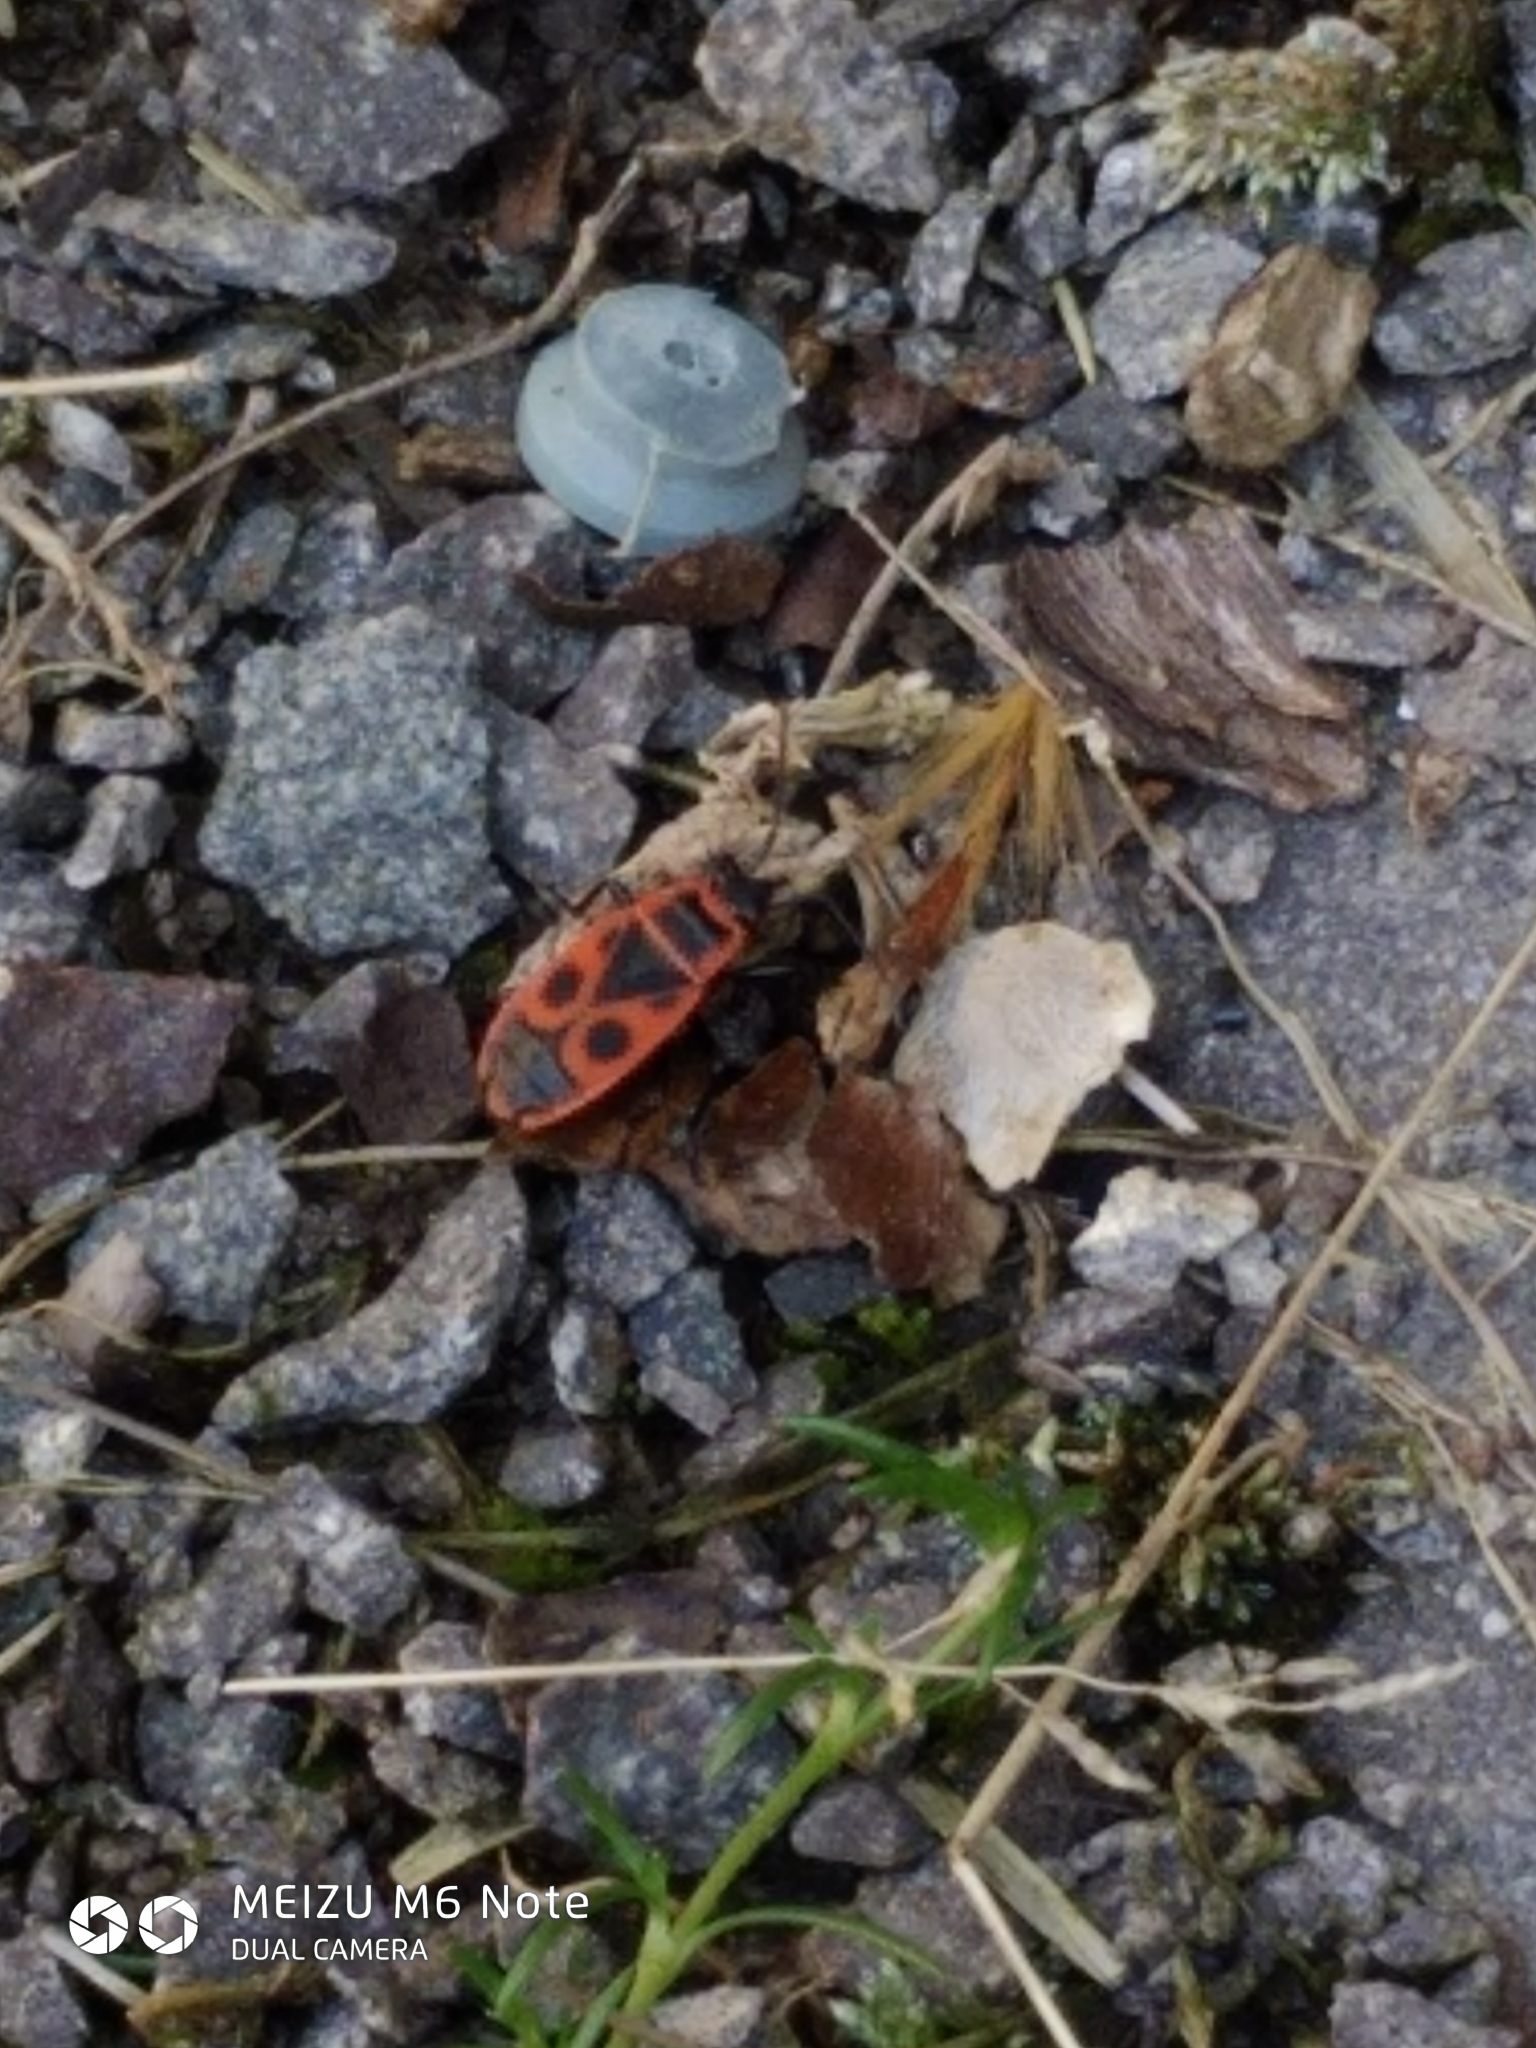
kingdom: Animalia
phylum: Arthropoda
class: Insecta
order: Hemiptera
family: Pyrrhocoridae
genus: Pyrrhocoris
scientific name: Pyrrhocoris apterus
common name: Firebug
